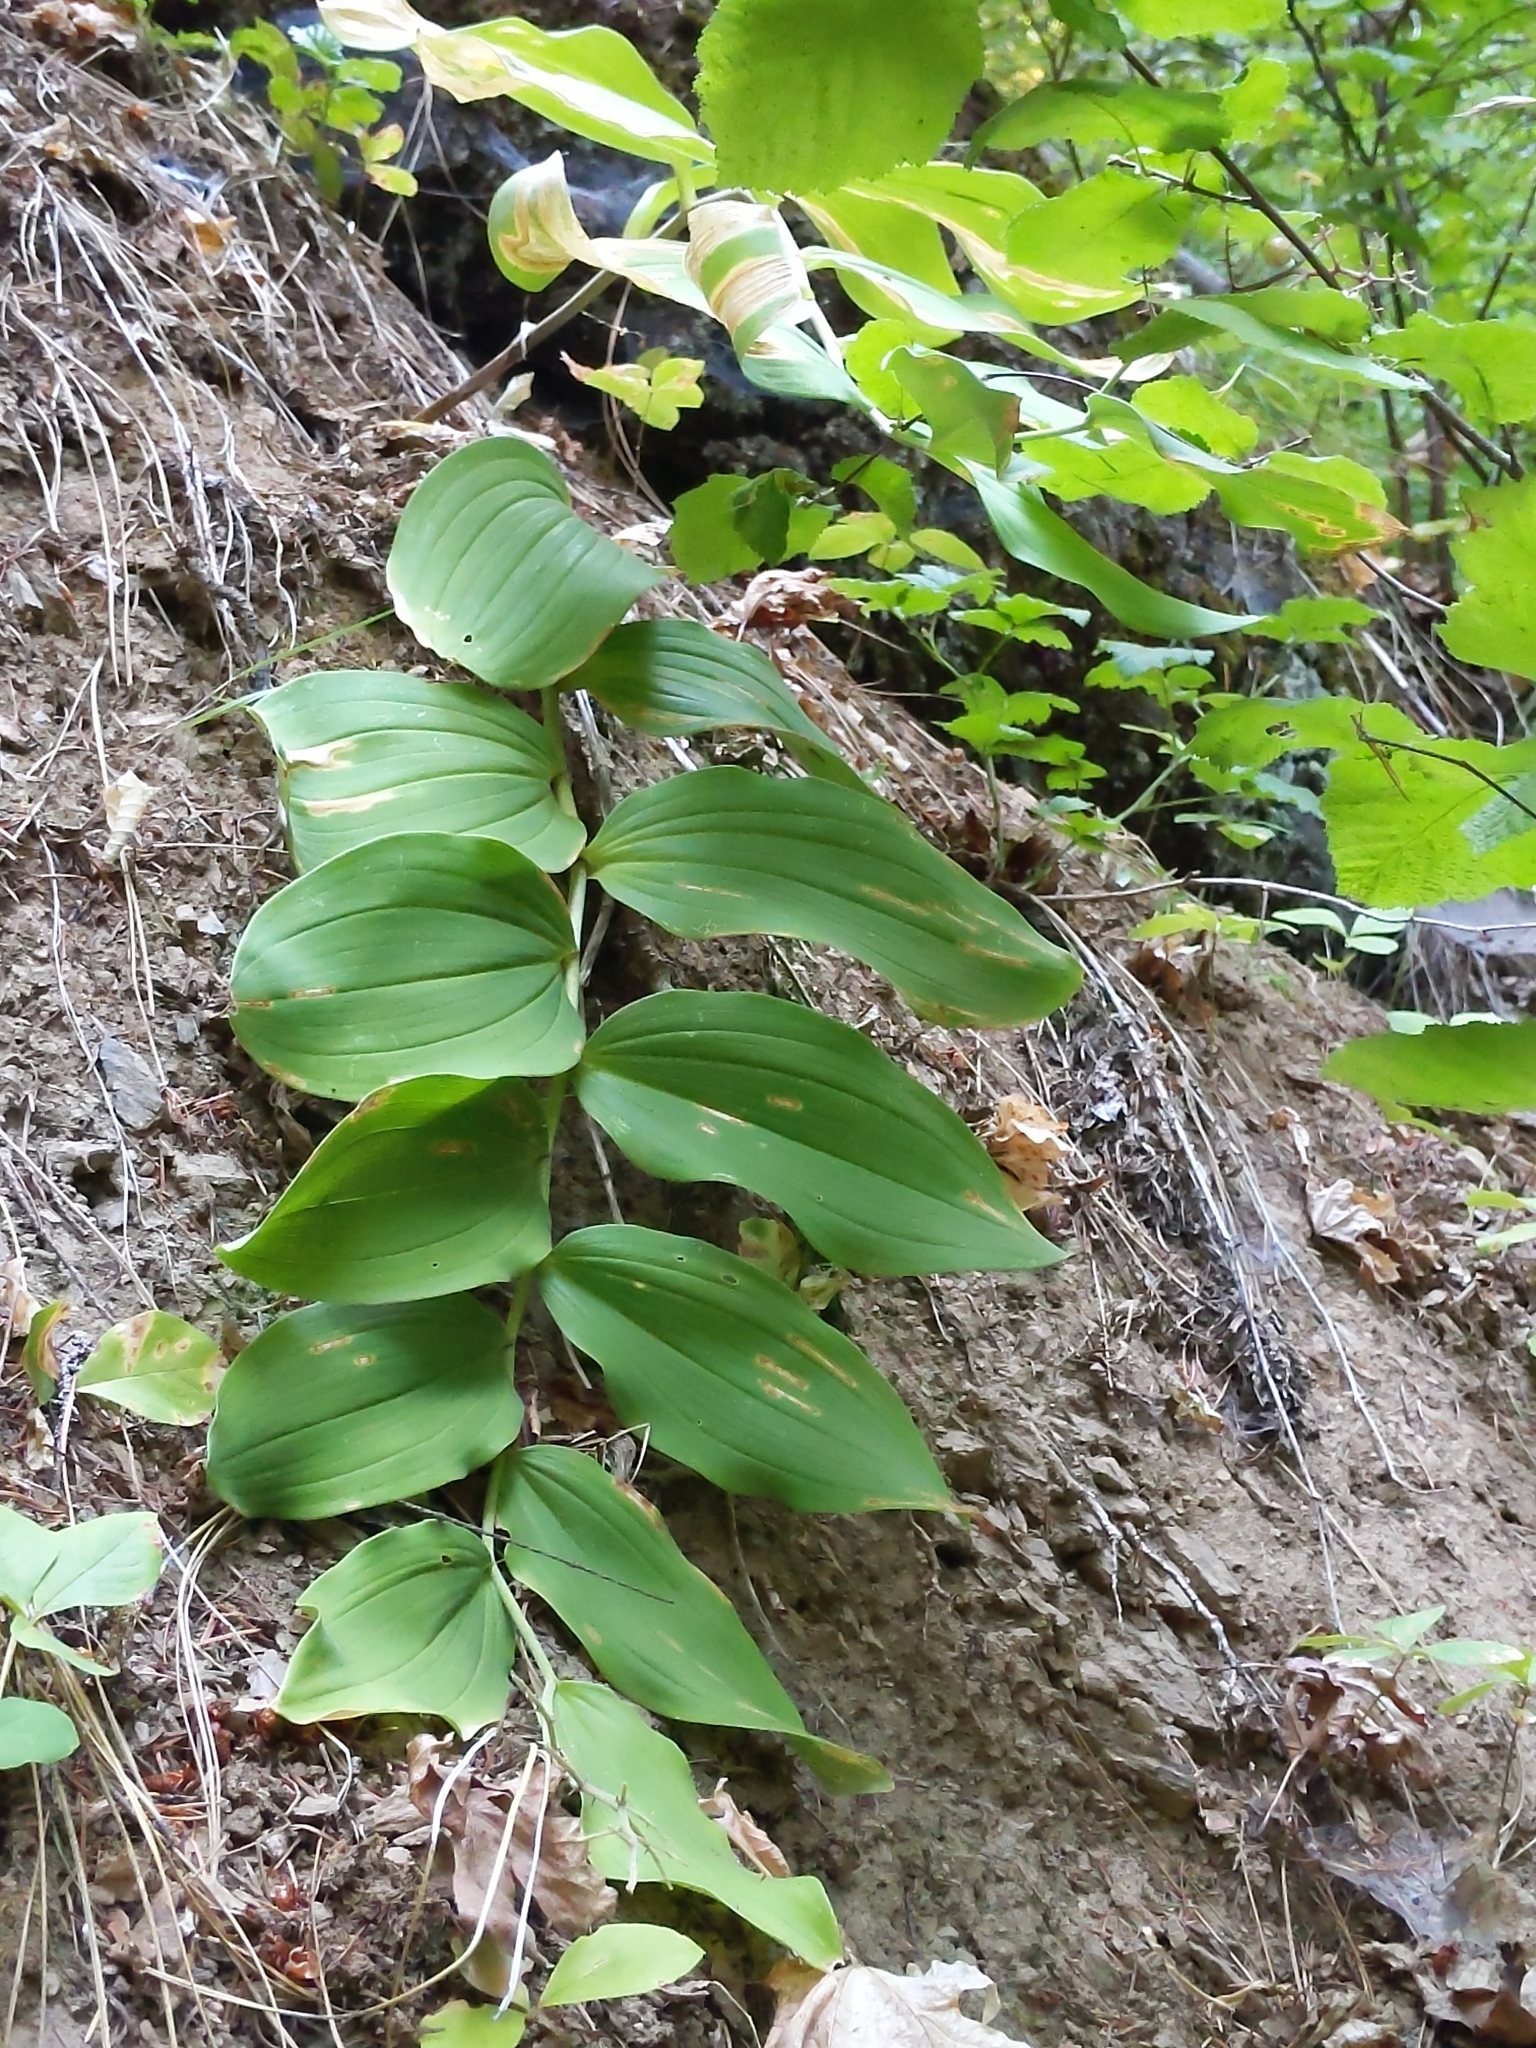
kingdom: Plantae
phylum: Tracheophyta
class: Liliopsida
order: Asparagales
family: Asparagaceae
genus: Maianthemum
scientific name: Maianthemum racemosum
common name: False spikenard
